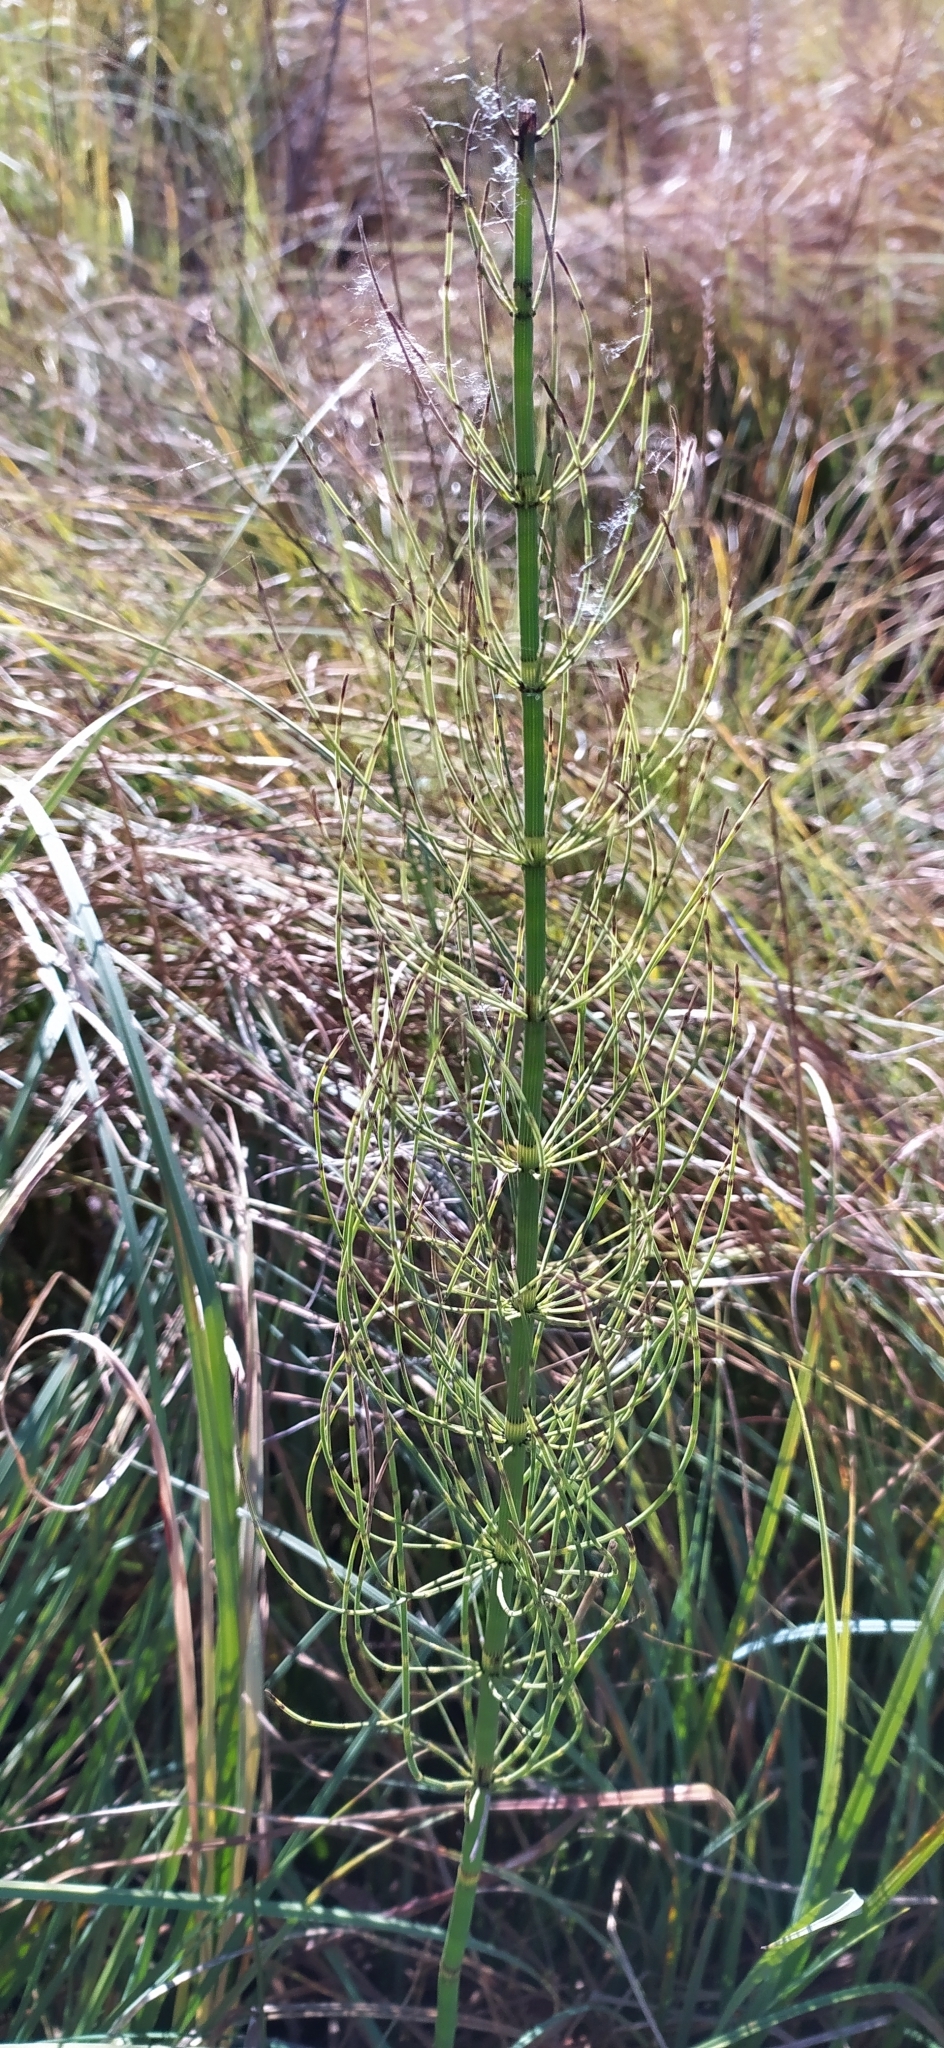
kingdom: Plantae
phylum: Tracheophyta
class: Polypodiopsida
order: Equisetales
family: Equisetaceae
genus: Equisetum
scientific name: Equisetum fluviatile
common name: Water horsetail
